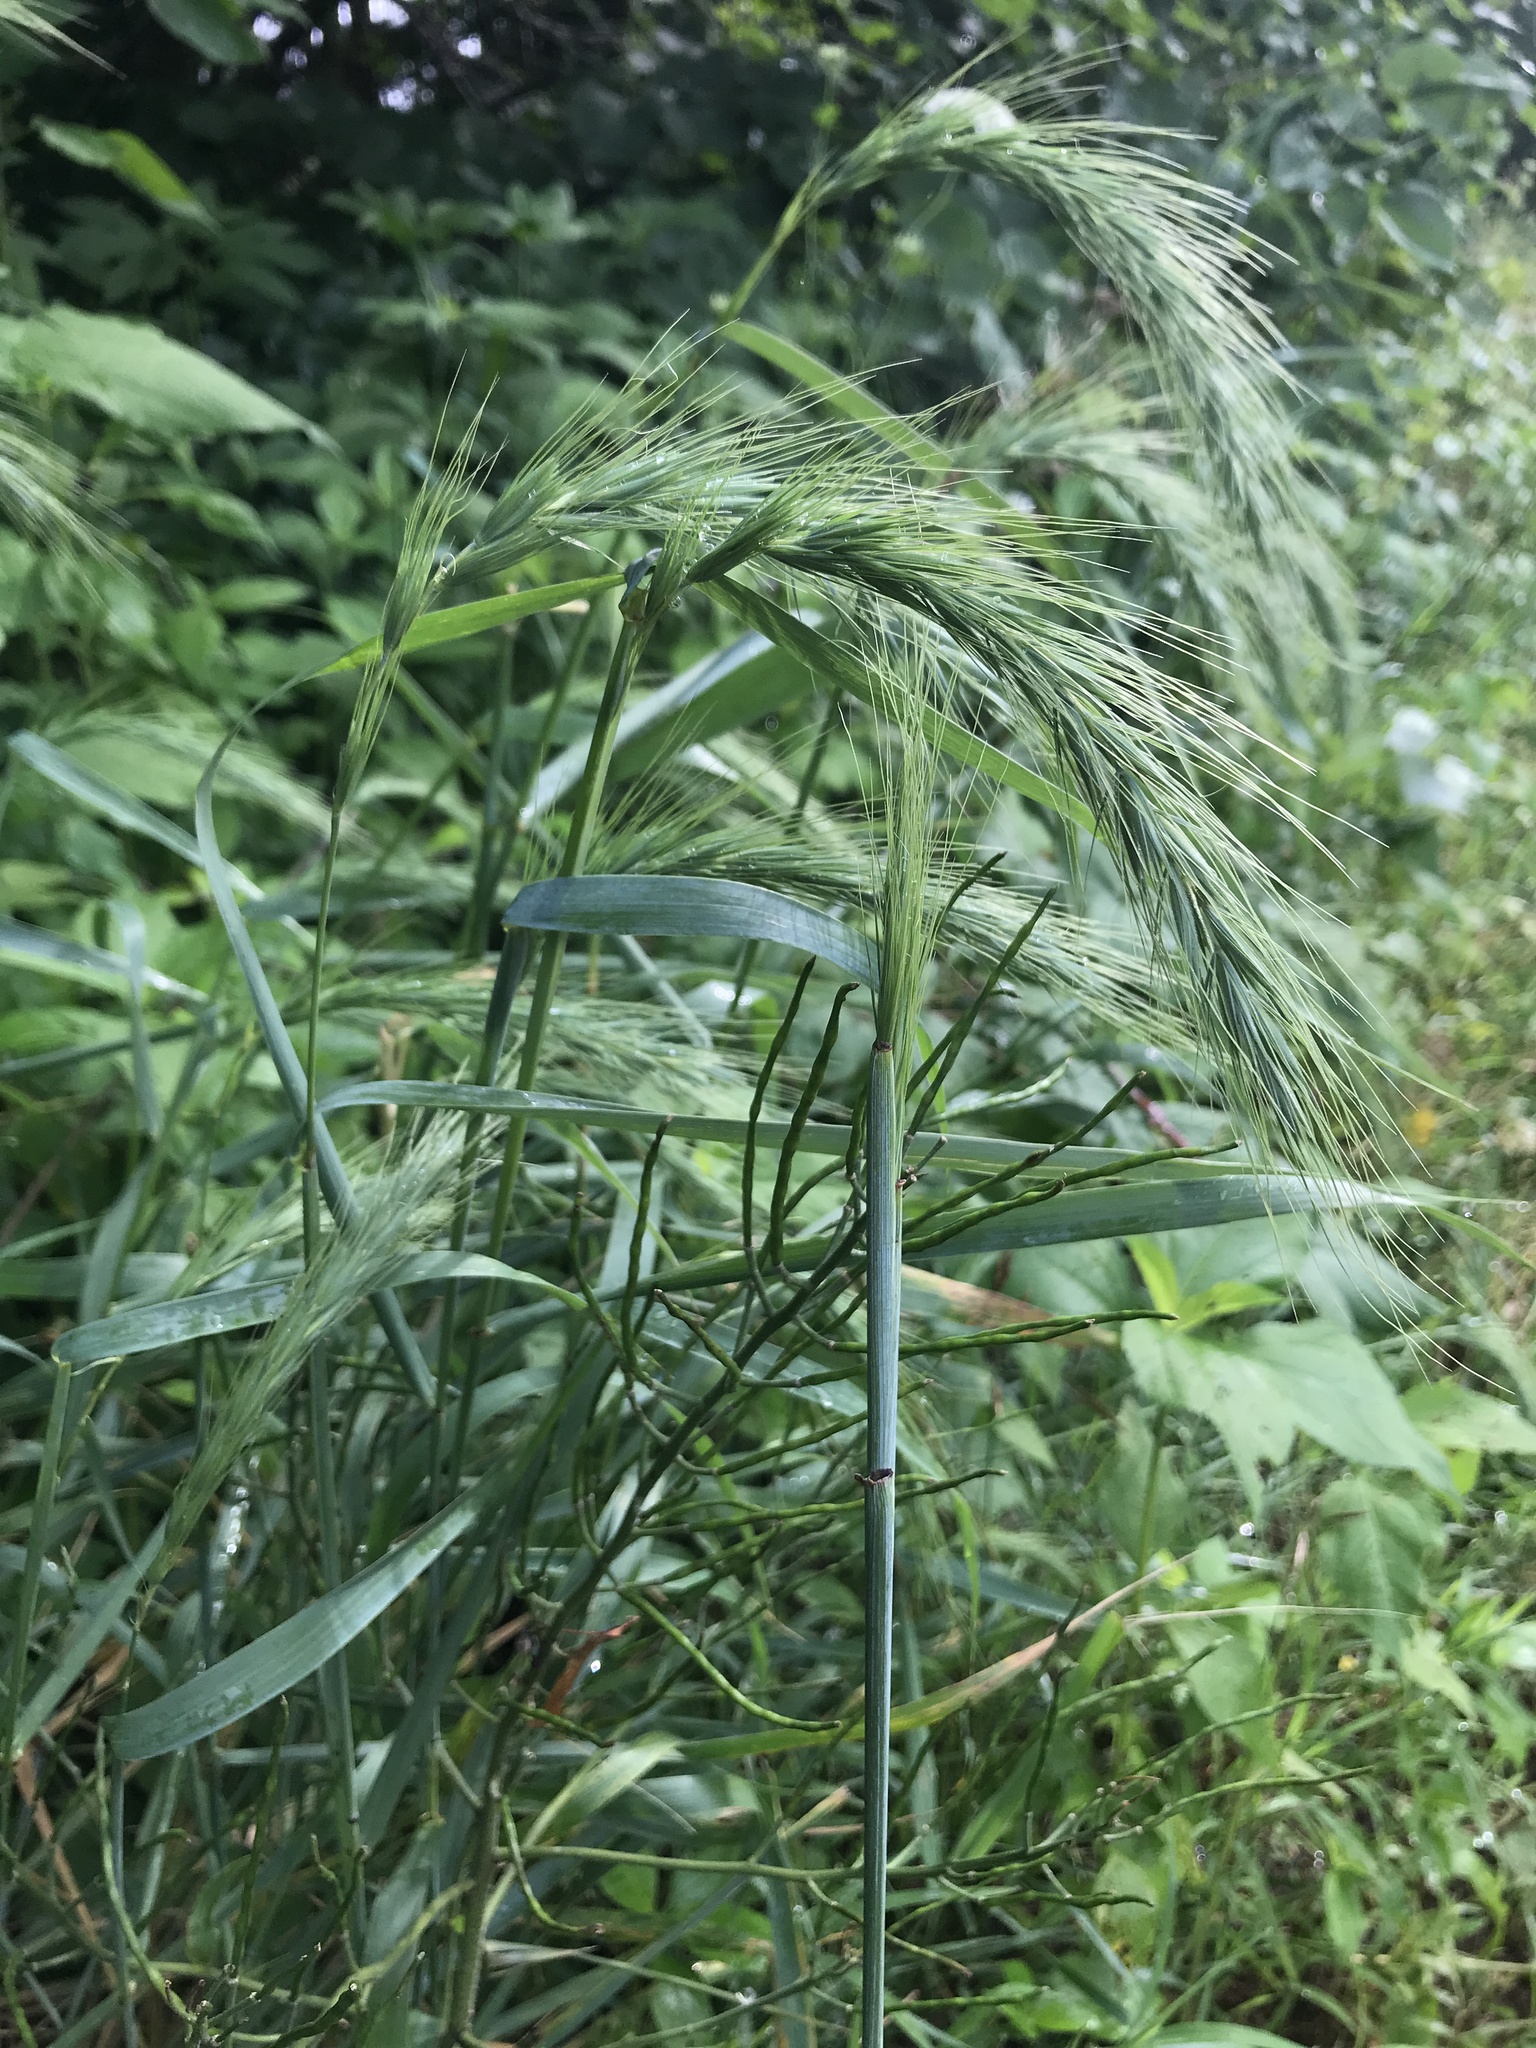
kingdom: Plantae
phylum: Tracheophyta
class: Liliopsida
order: Poales
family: Poaceae
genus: Elymus
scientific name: Elymus canadensis
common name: Canada wild rye
